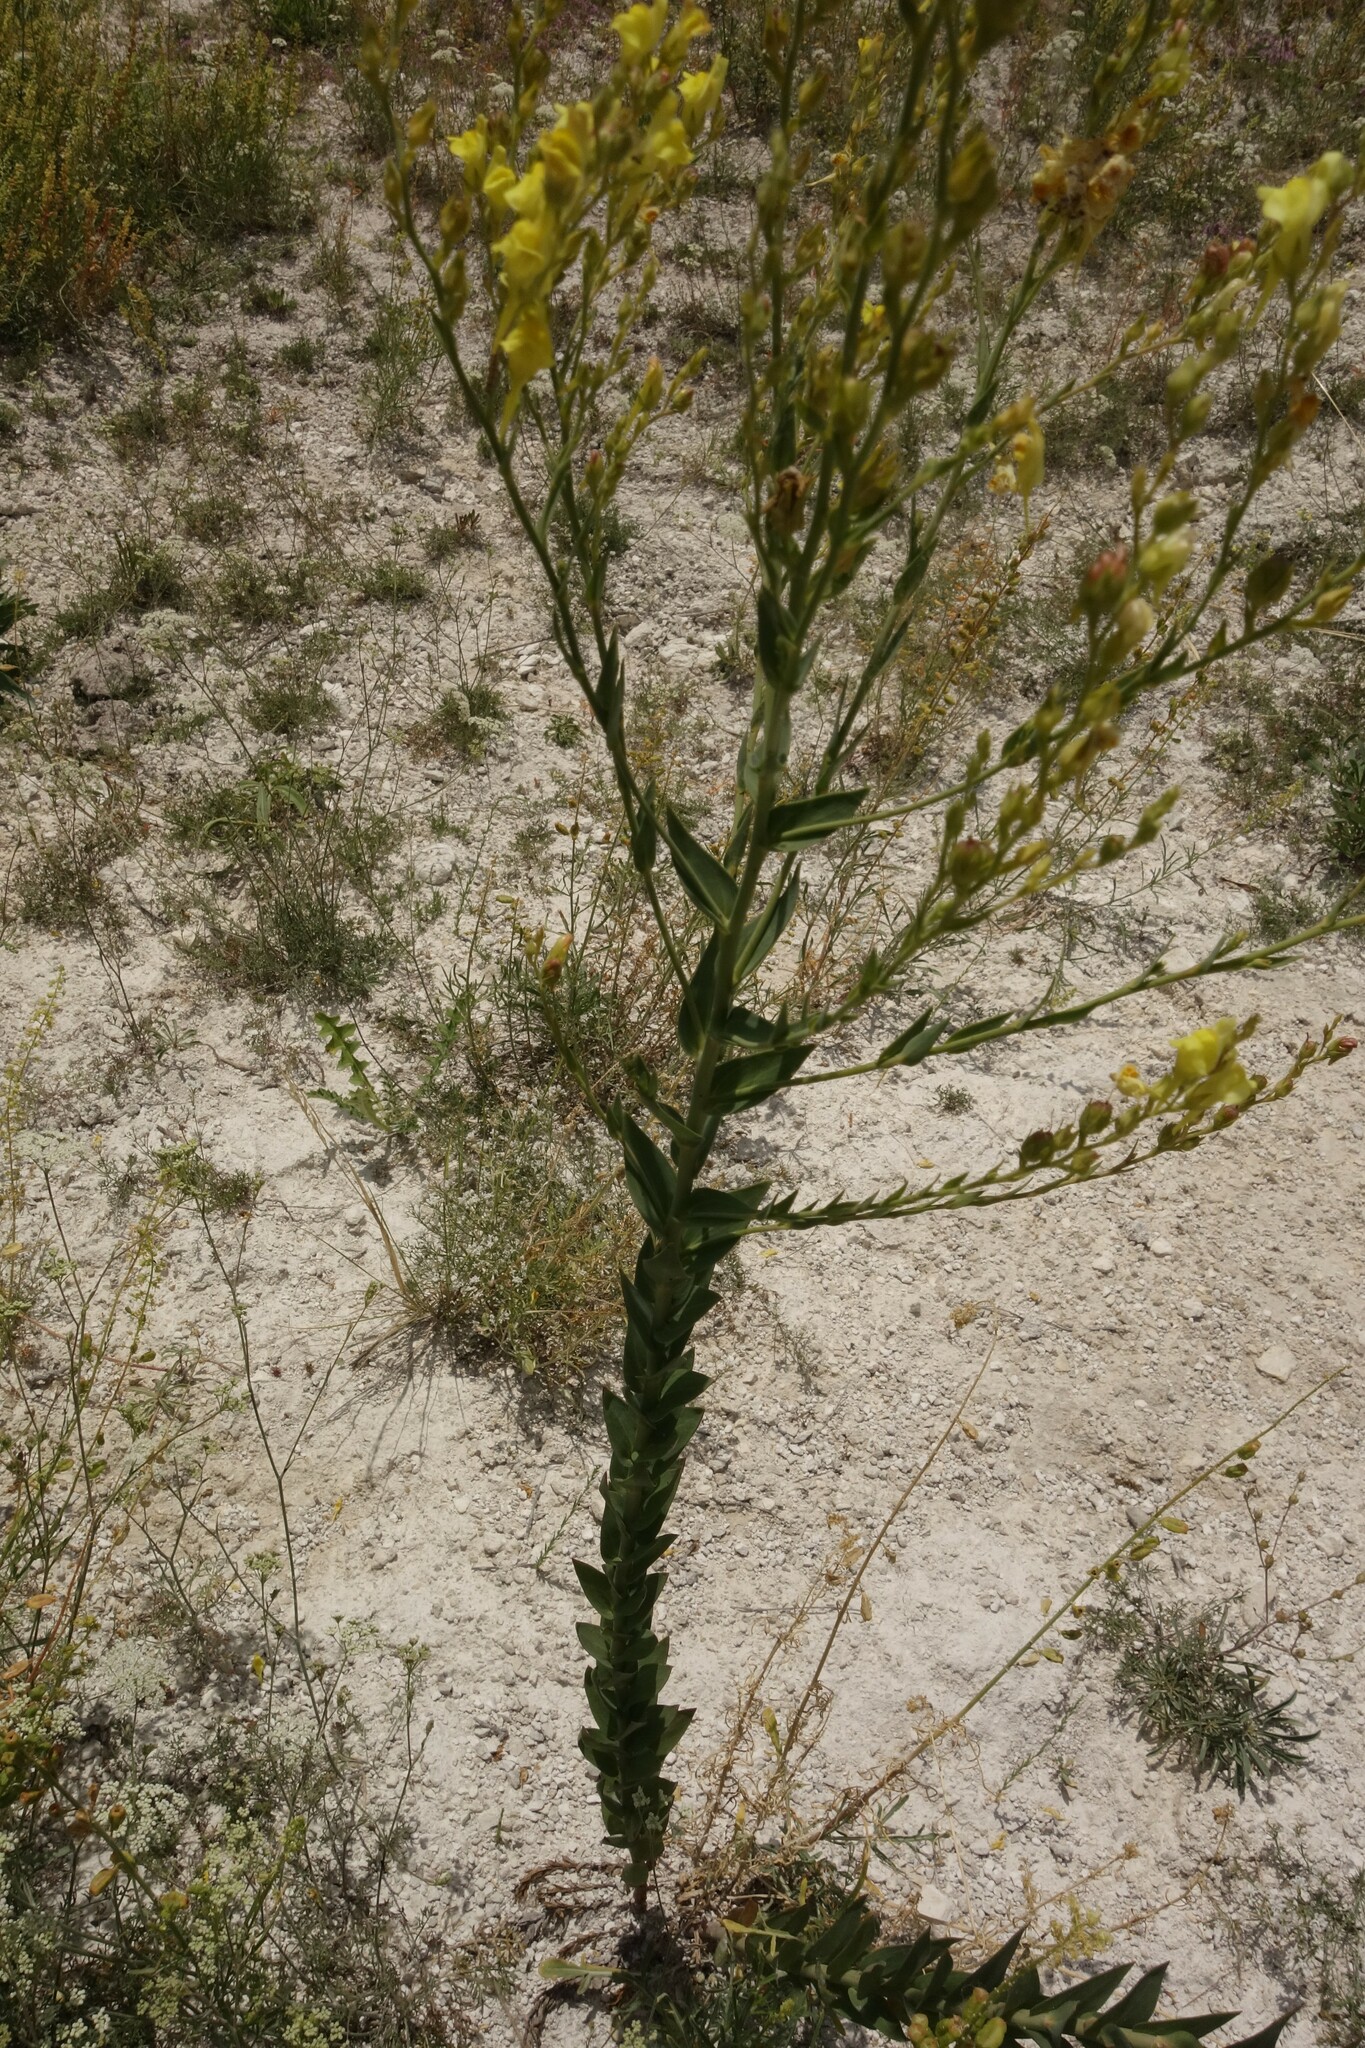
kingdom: Plantae
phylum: Tracheophyta
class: Magnoliopsida
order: Lamiales
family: Plantaginaceae
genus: Linaria
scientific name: Linaria genistifolia
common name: Broomleaf toadflax
